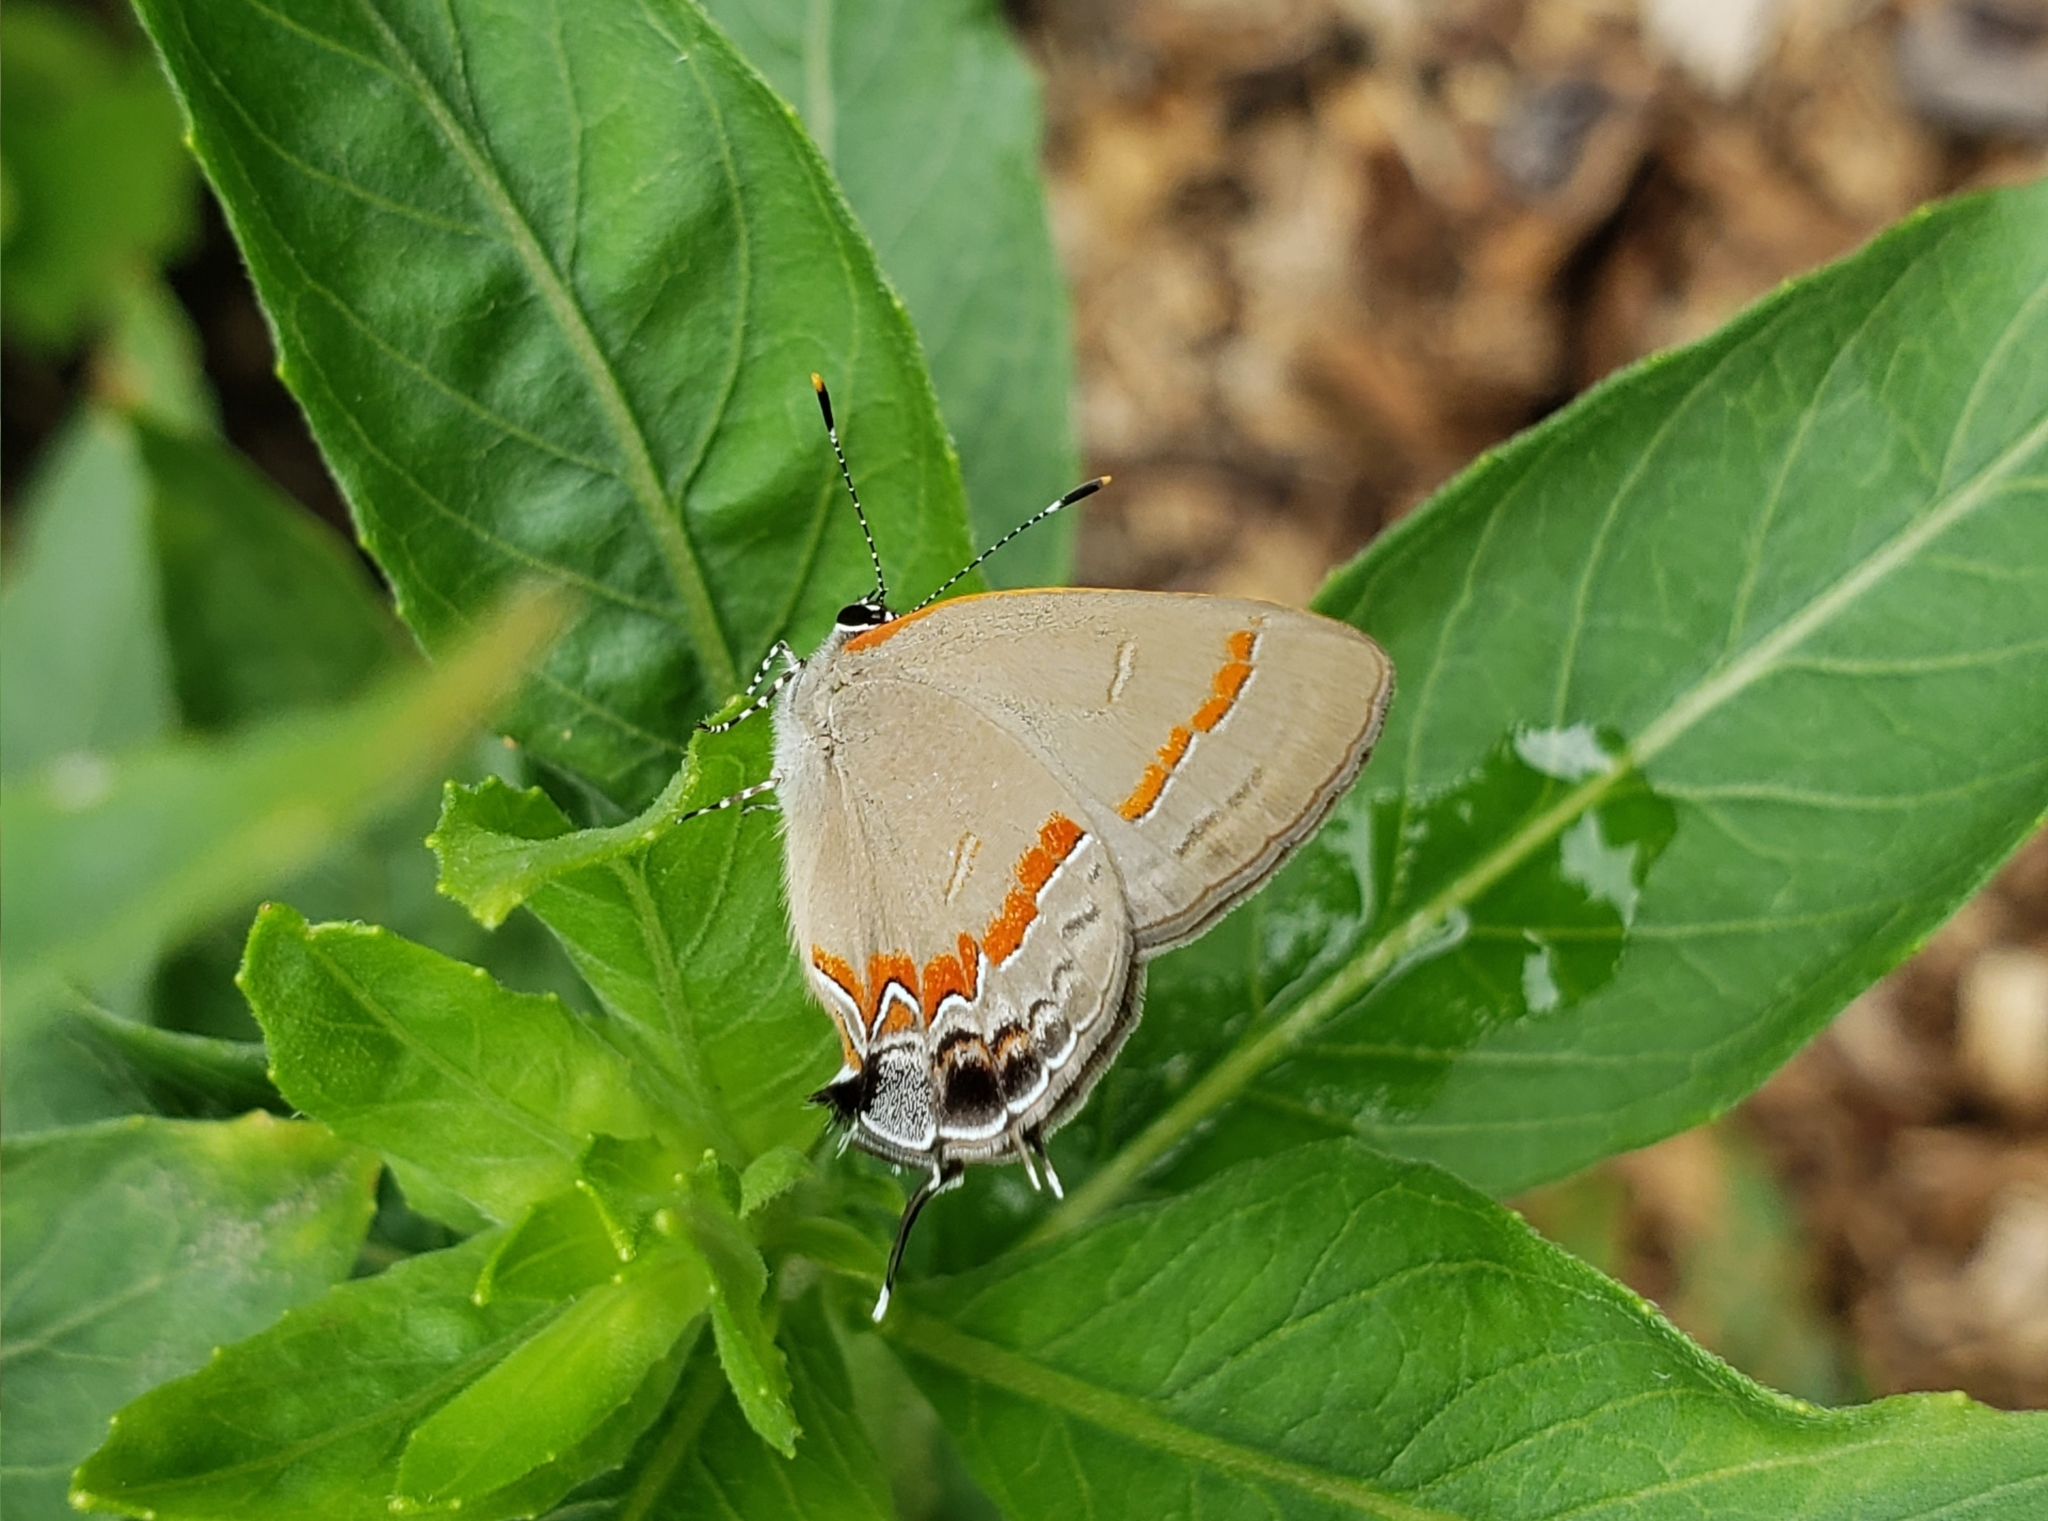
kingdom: Animalia
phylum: Arthropoda
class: Insecta
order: Lepidoptera
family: Lycaenidae
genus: Calycopis
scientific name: Calycopis cecrops
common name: Red-banded hairstreak
